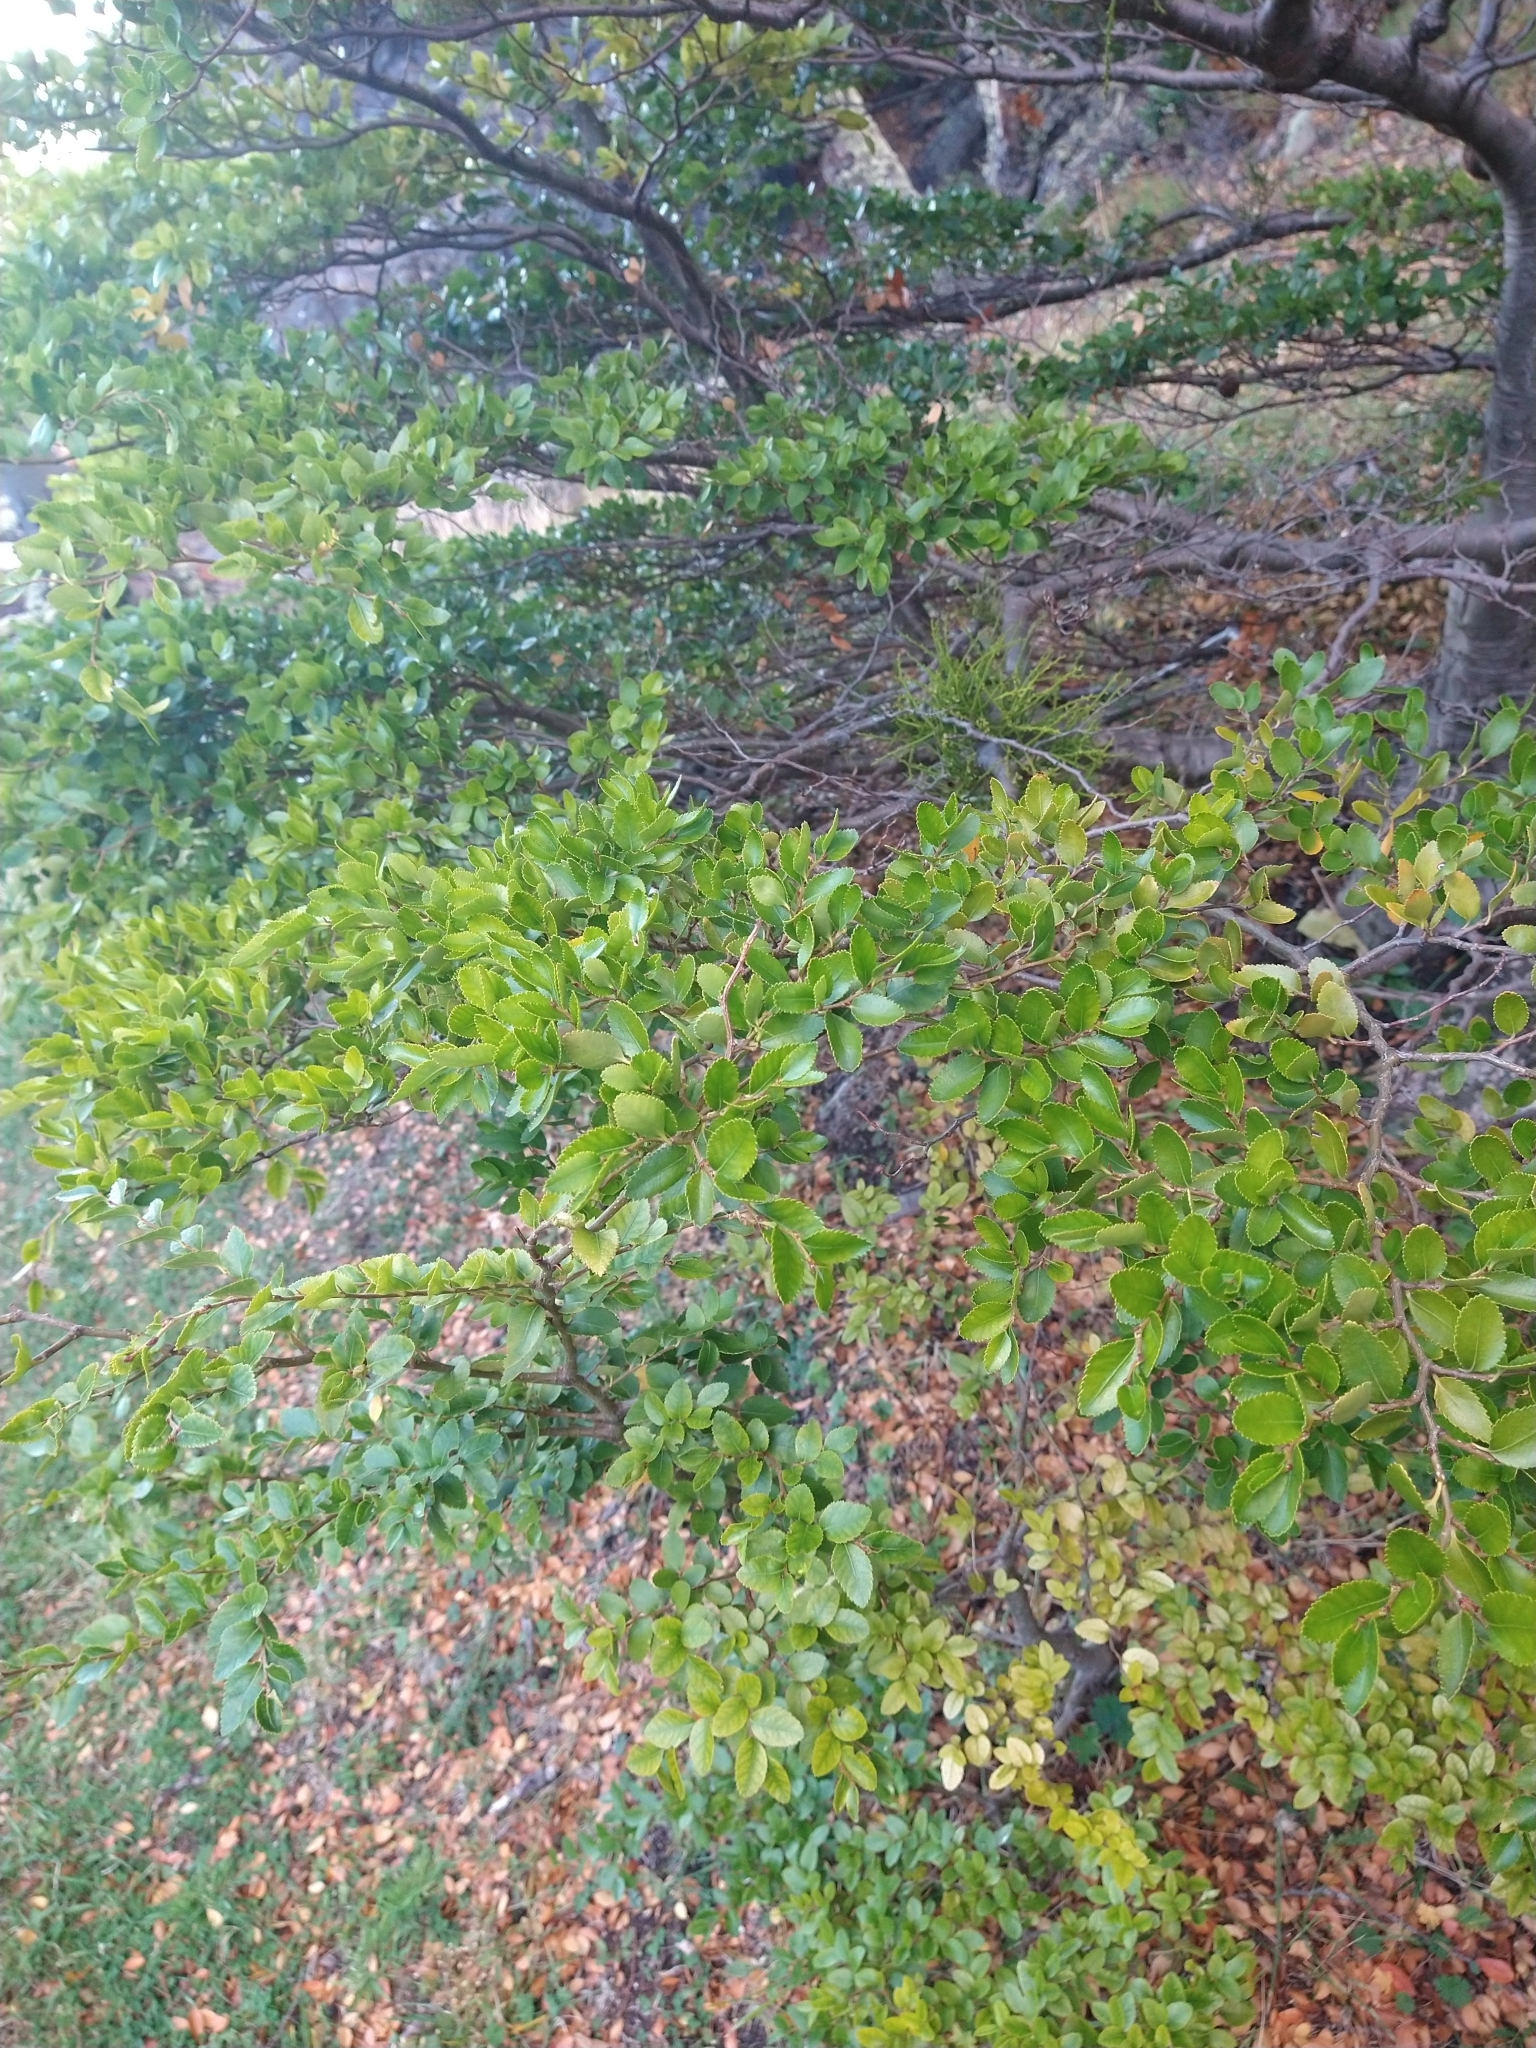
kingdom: Plantae
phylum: Tracheophyta
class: Magnoliopsida
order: Fagales
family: Nothofagaceae
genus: Nothofagus
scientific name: Nothofagus betuloides
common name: Magellan's beech
